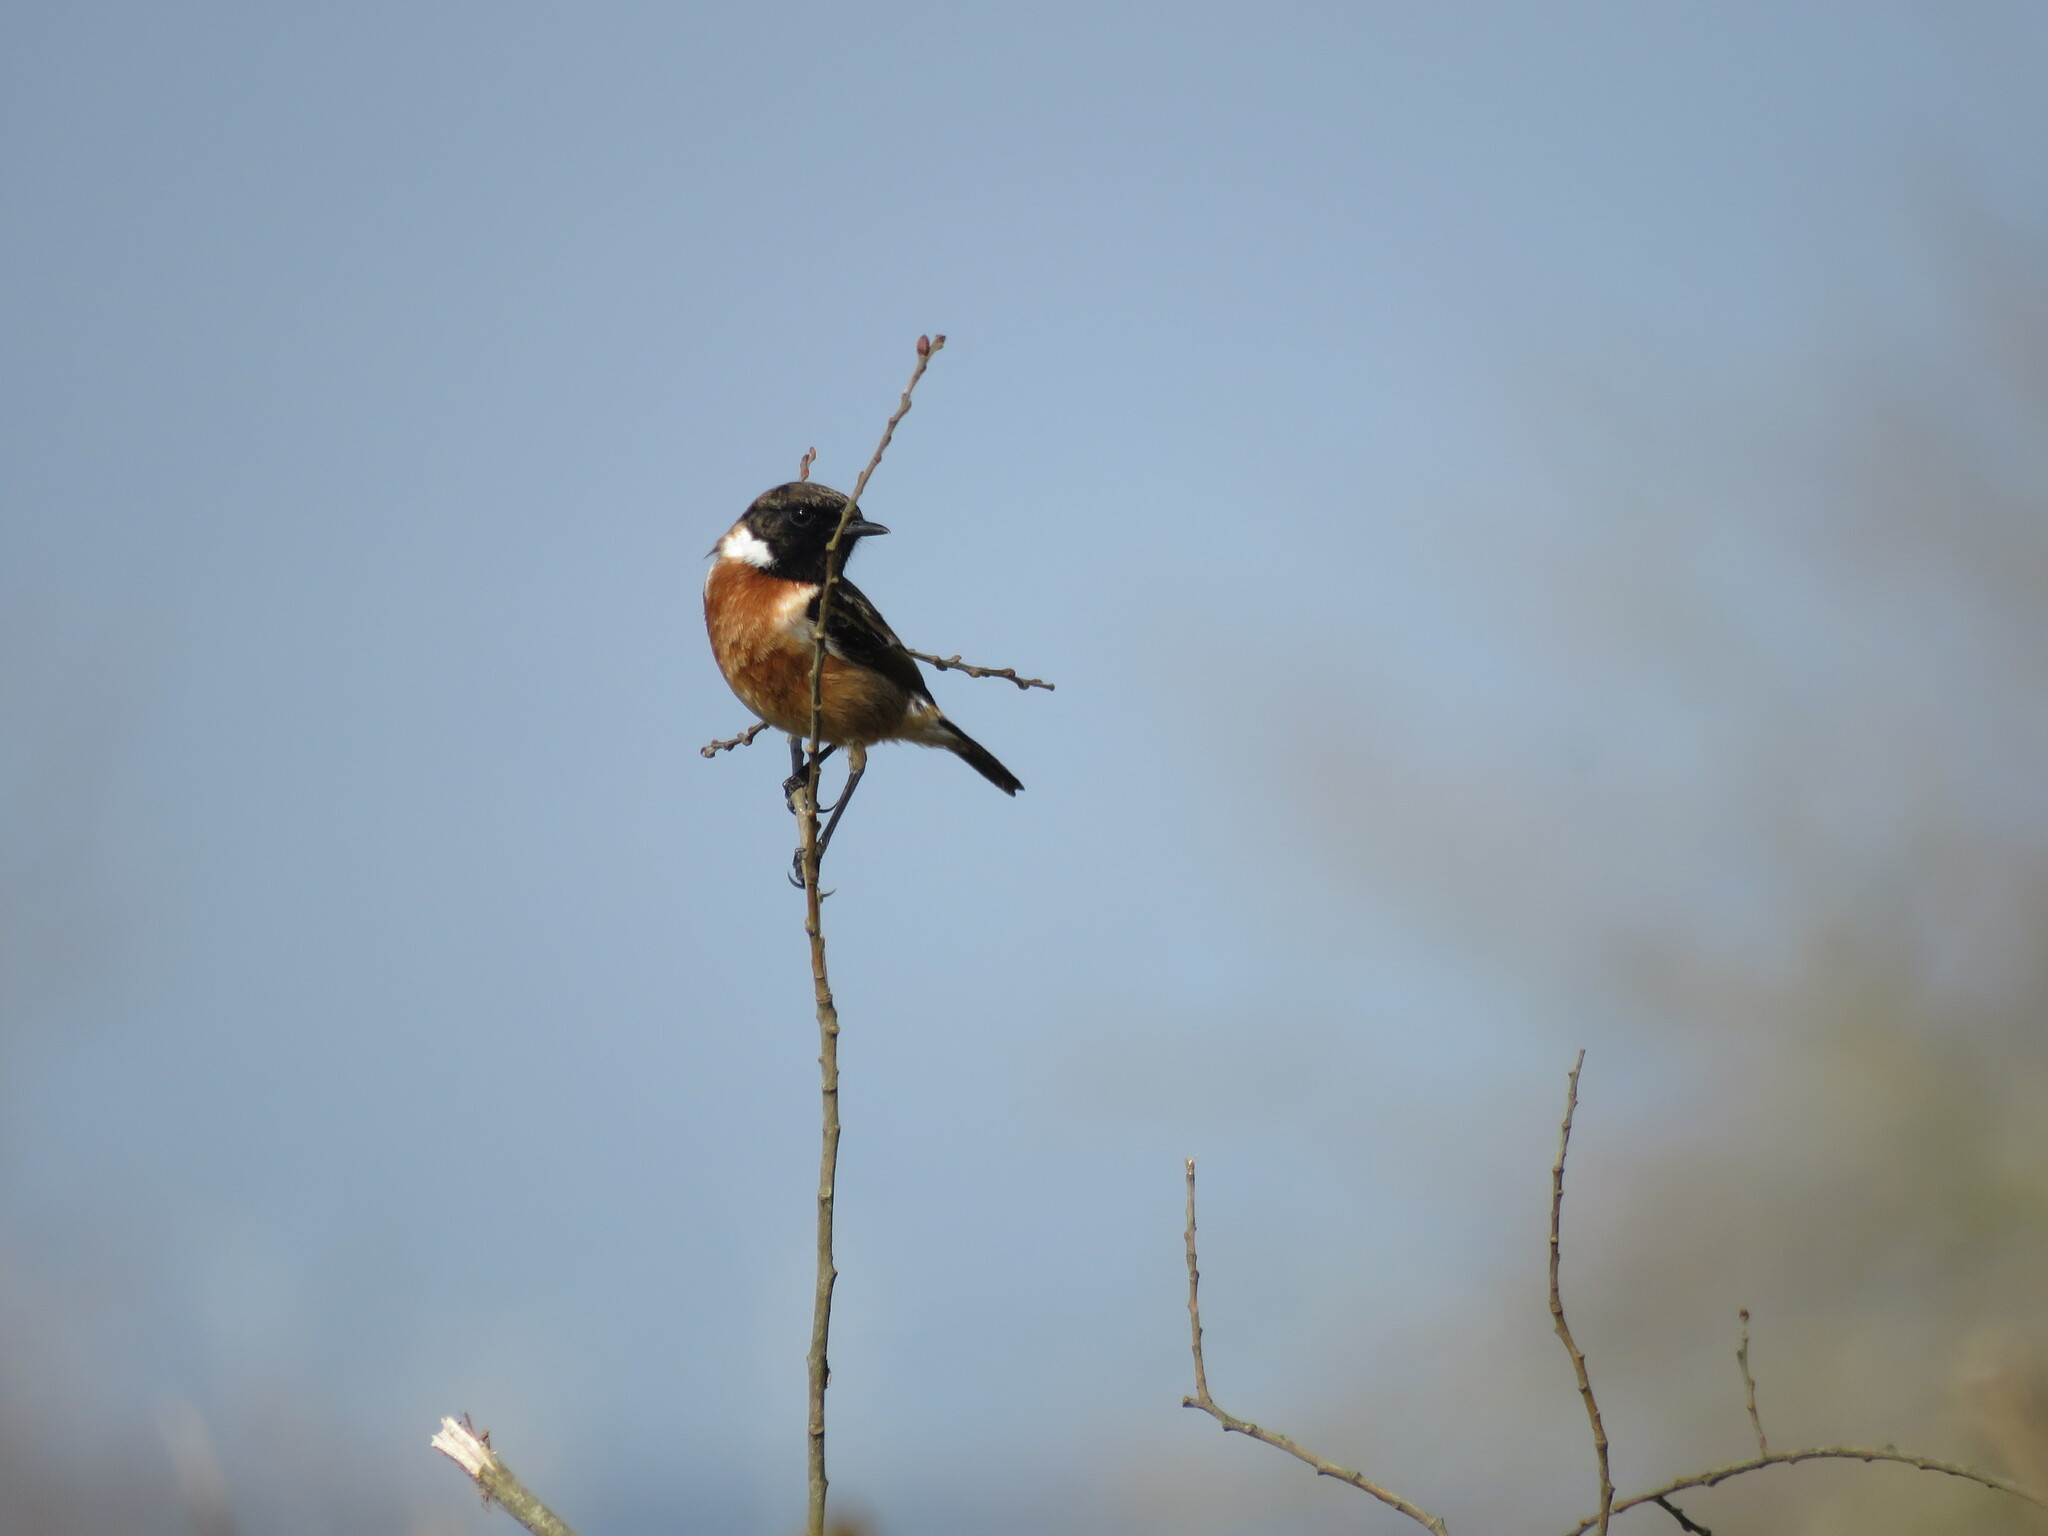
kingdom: Animalia
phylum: Chordata
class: Aves
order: Passeriformes
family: Muscicapidae
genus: Saxicola
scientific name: Saxicola rubicola
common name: European stonechat
